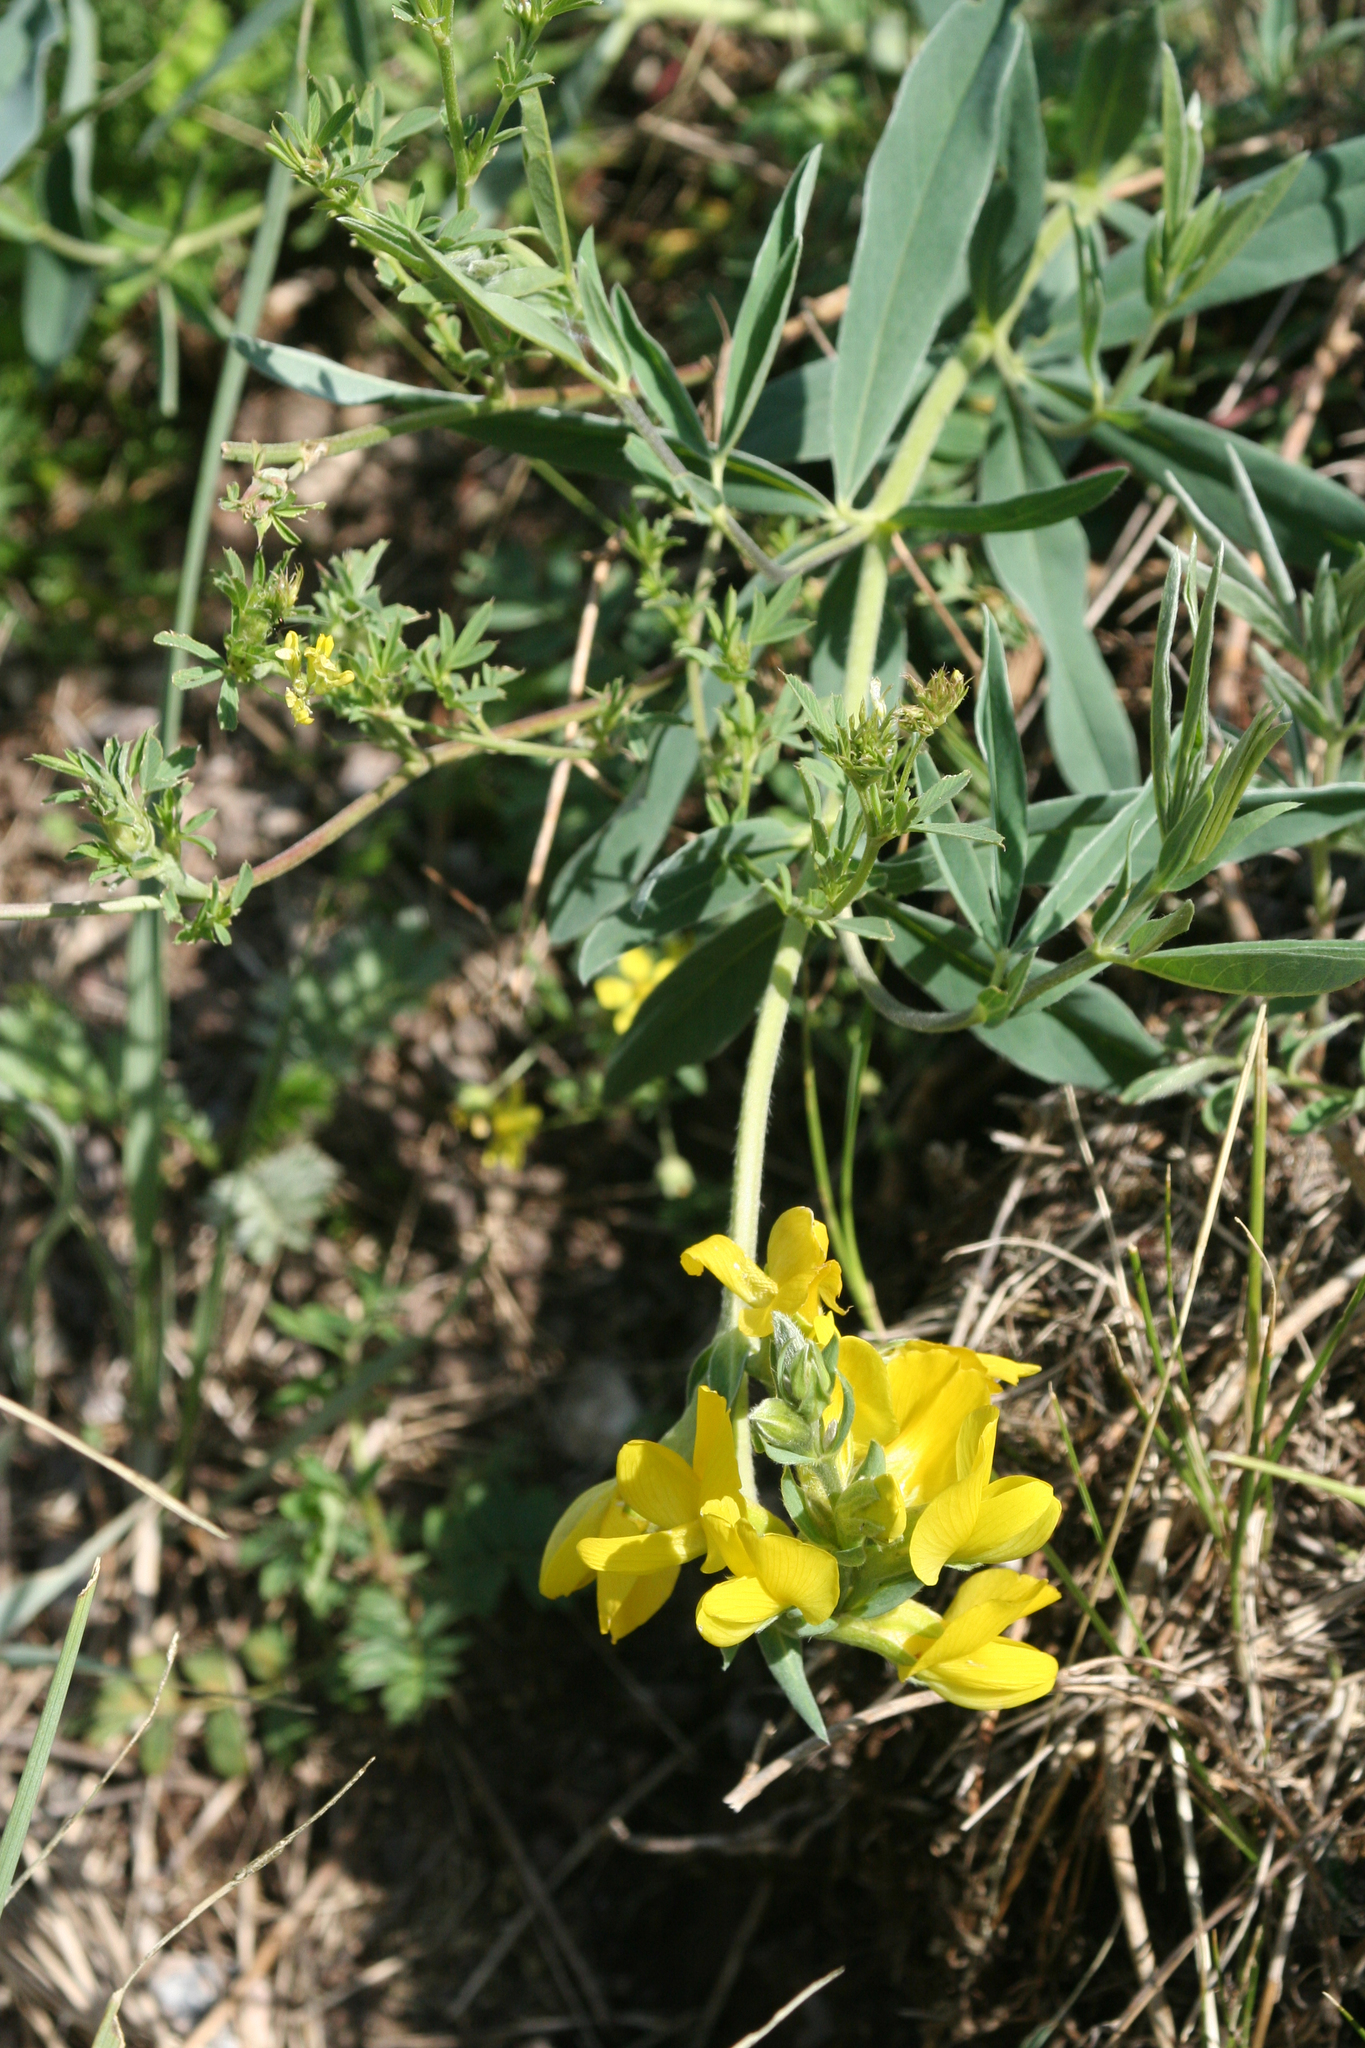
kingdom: Plantae
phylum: Tracheophyta
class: Magnoliopsida
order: Fabales
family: Fabaceae
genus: Thermopsis
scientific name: Thermopsis mongolica
